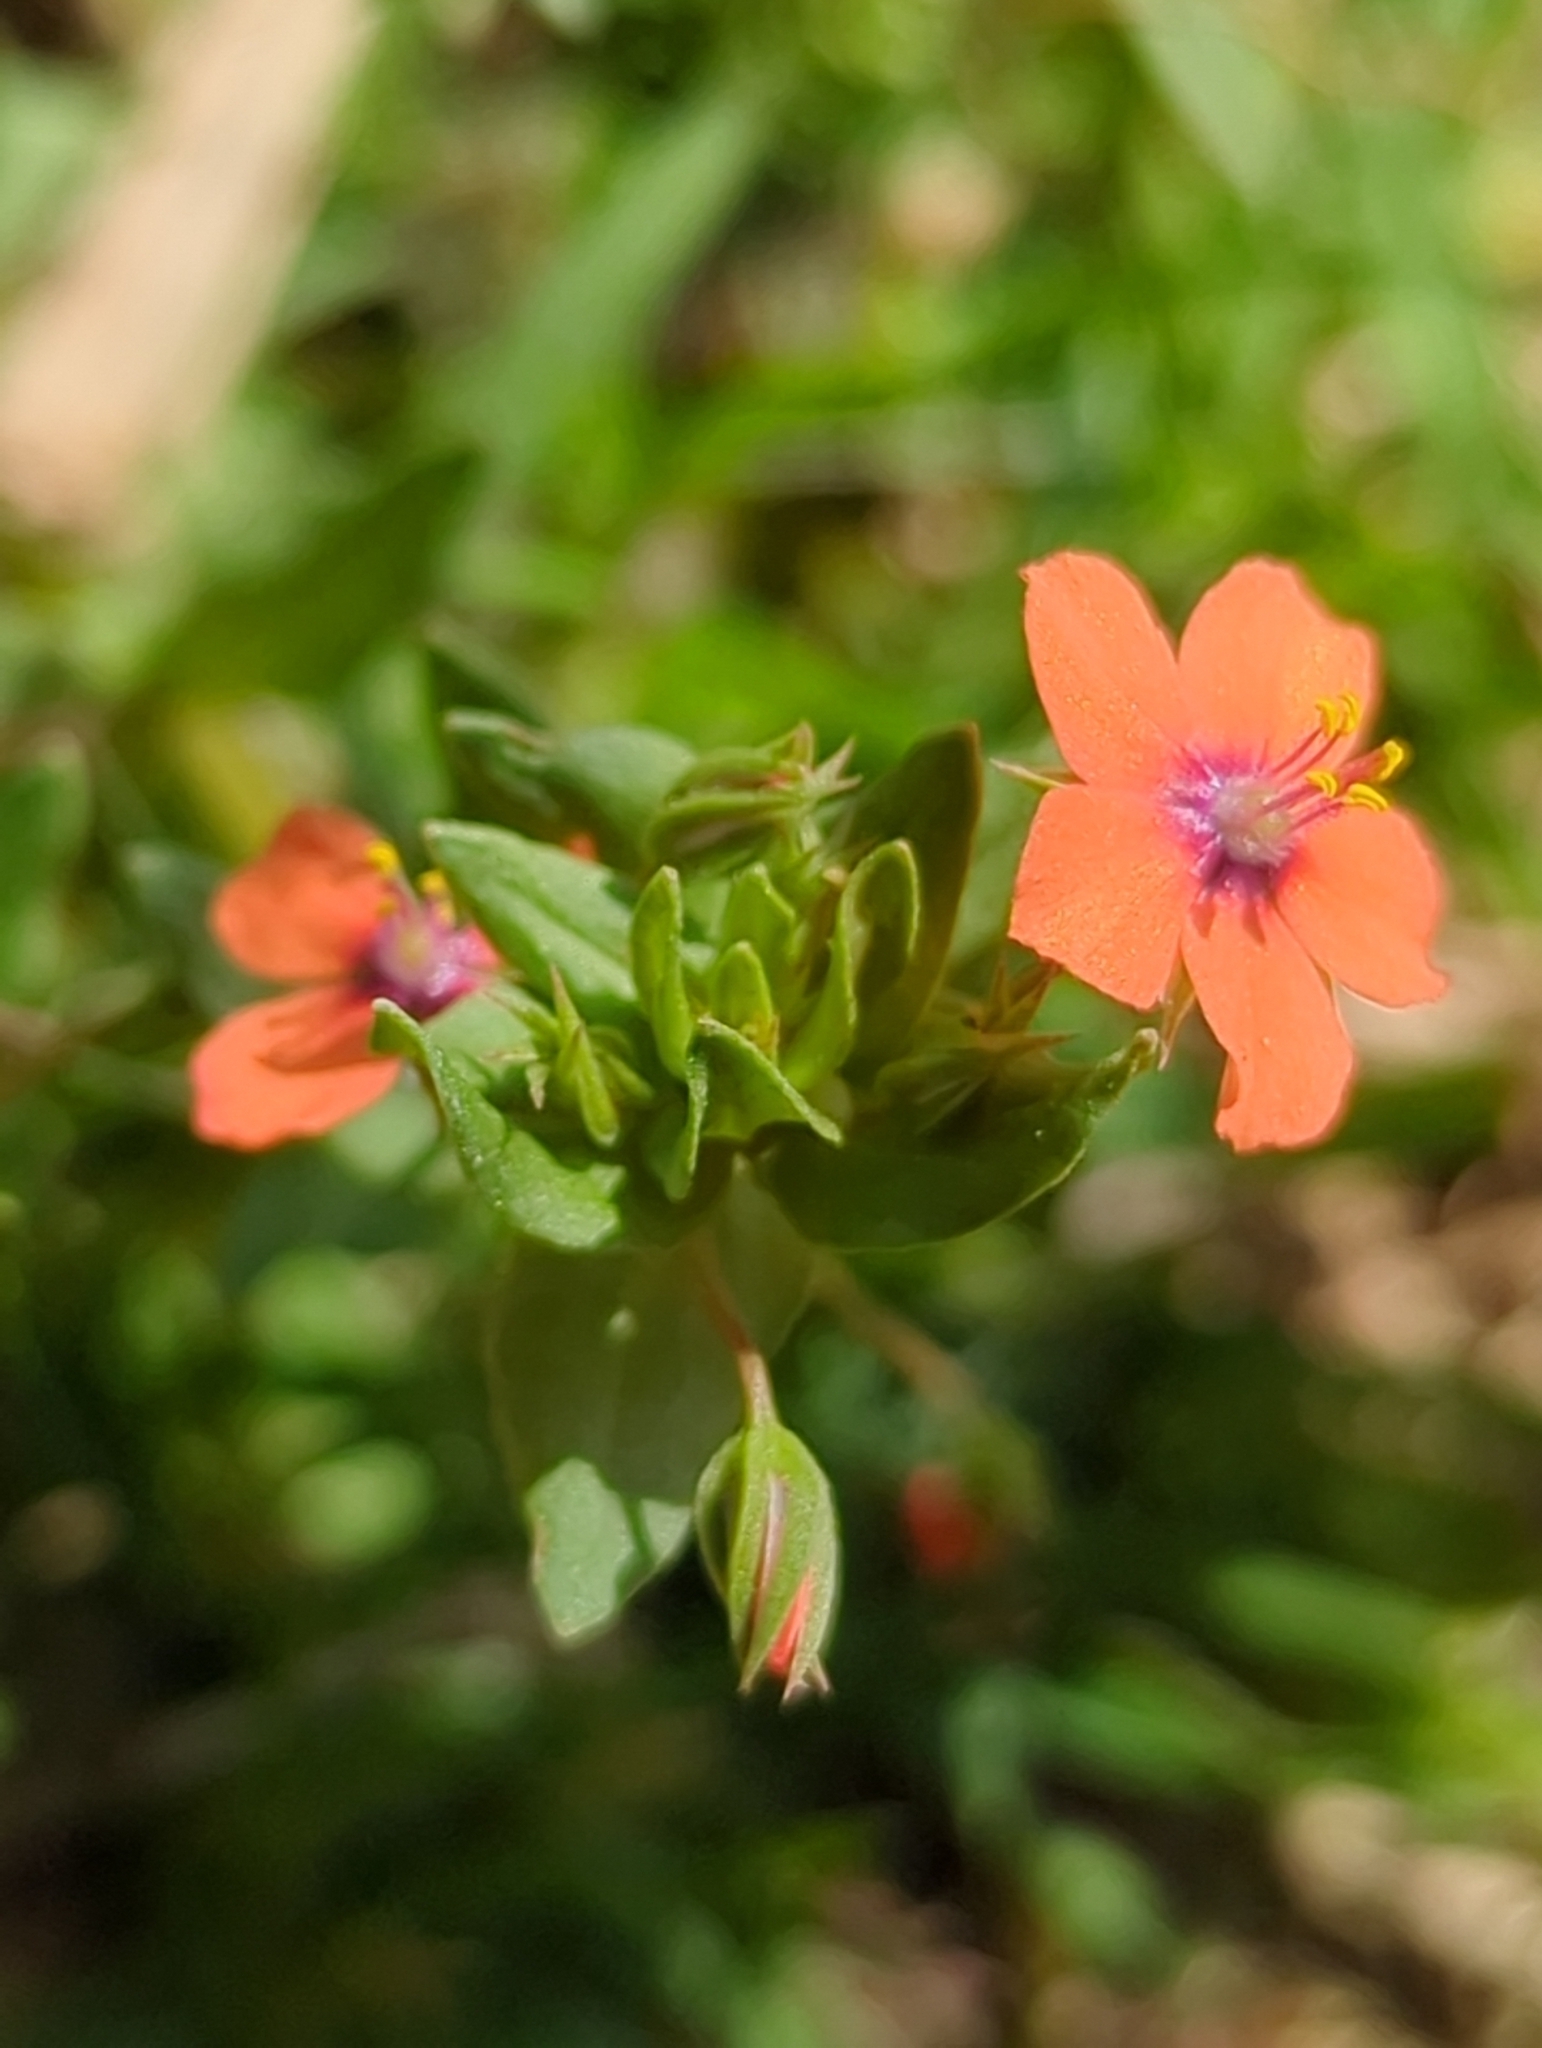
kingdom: Plantae
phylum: Tracheophyta
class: Magnoliopsida
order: Ericales
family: Primulaceae
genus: Lysimachia
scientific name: Lysimachia arvensis
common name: Scarlet pimpernel
